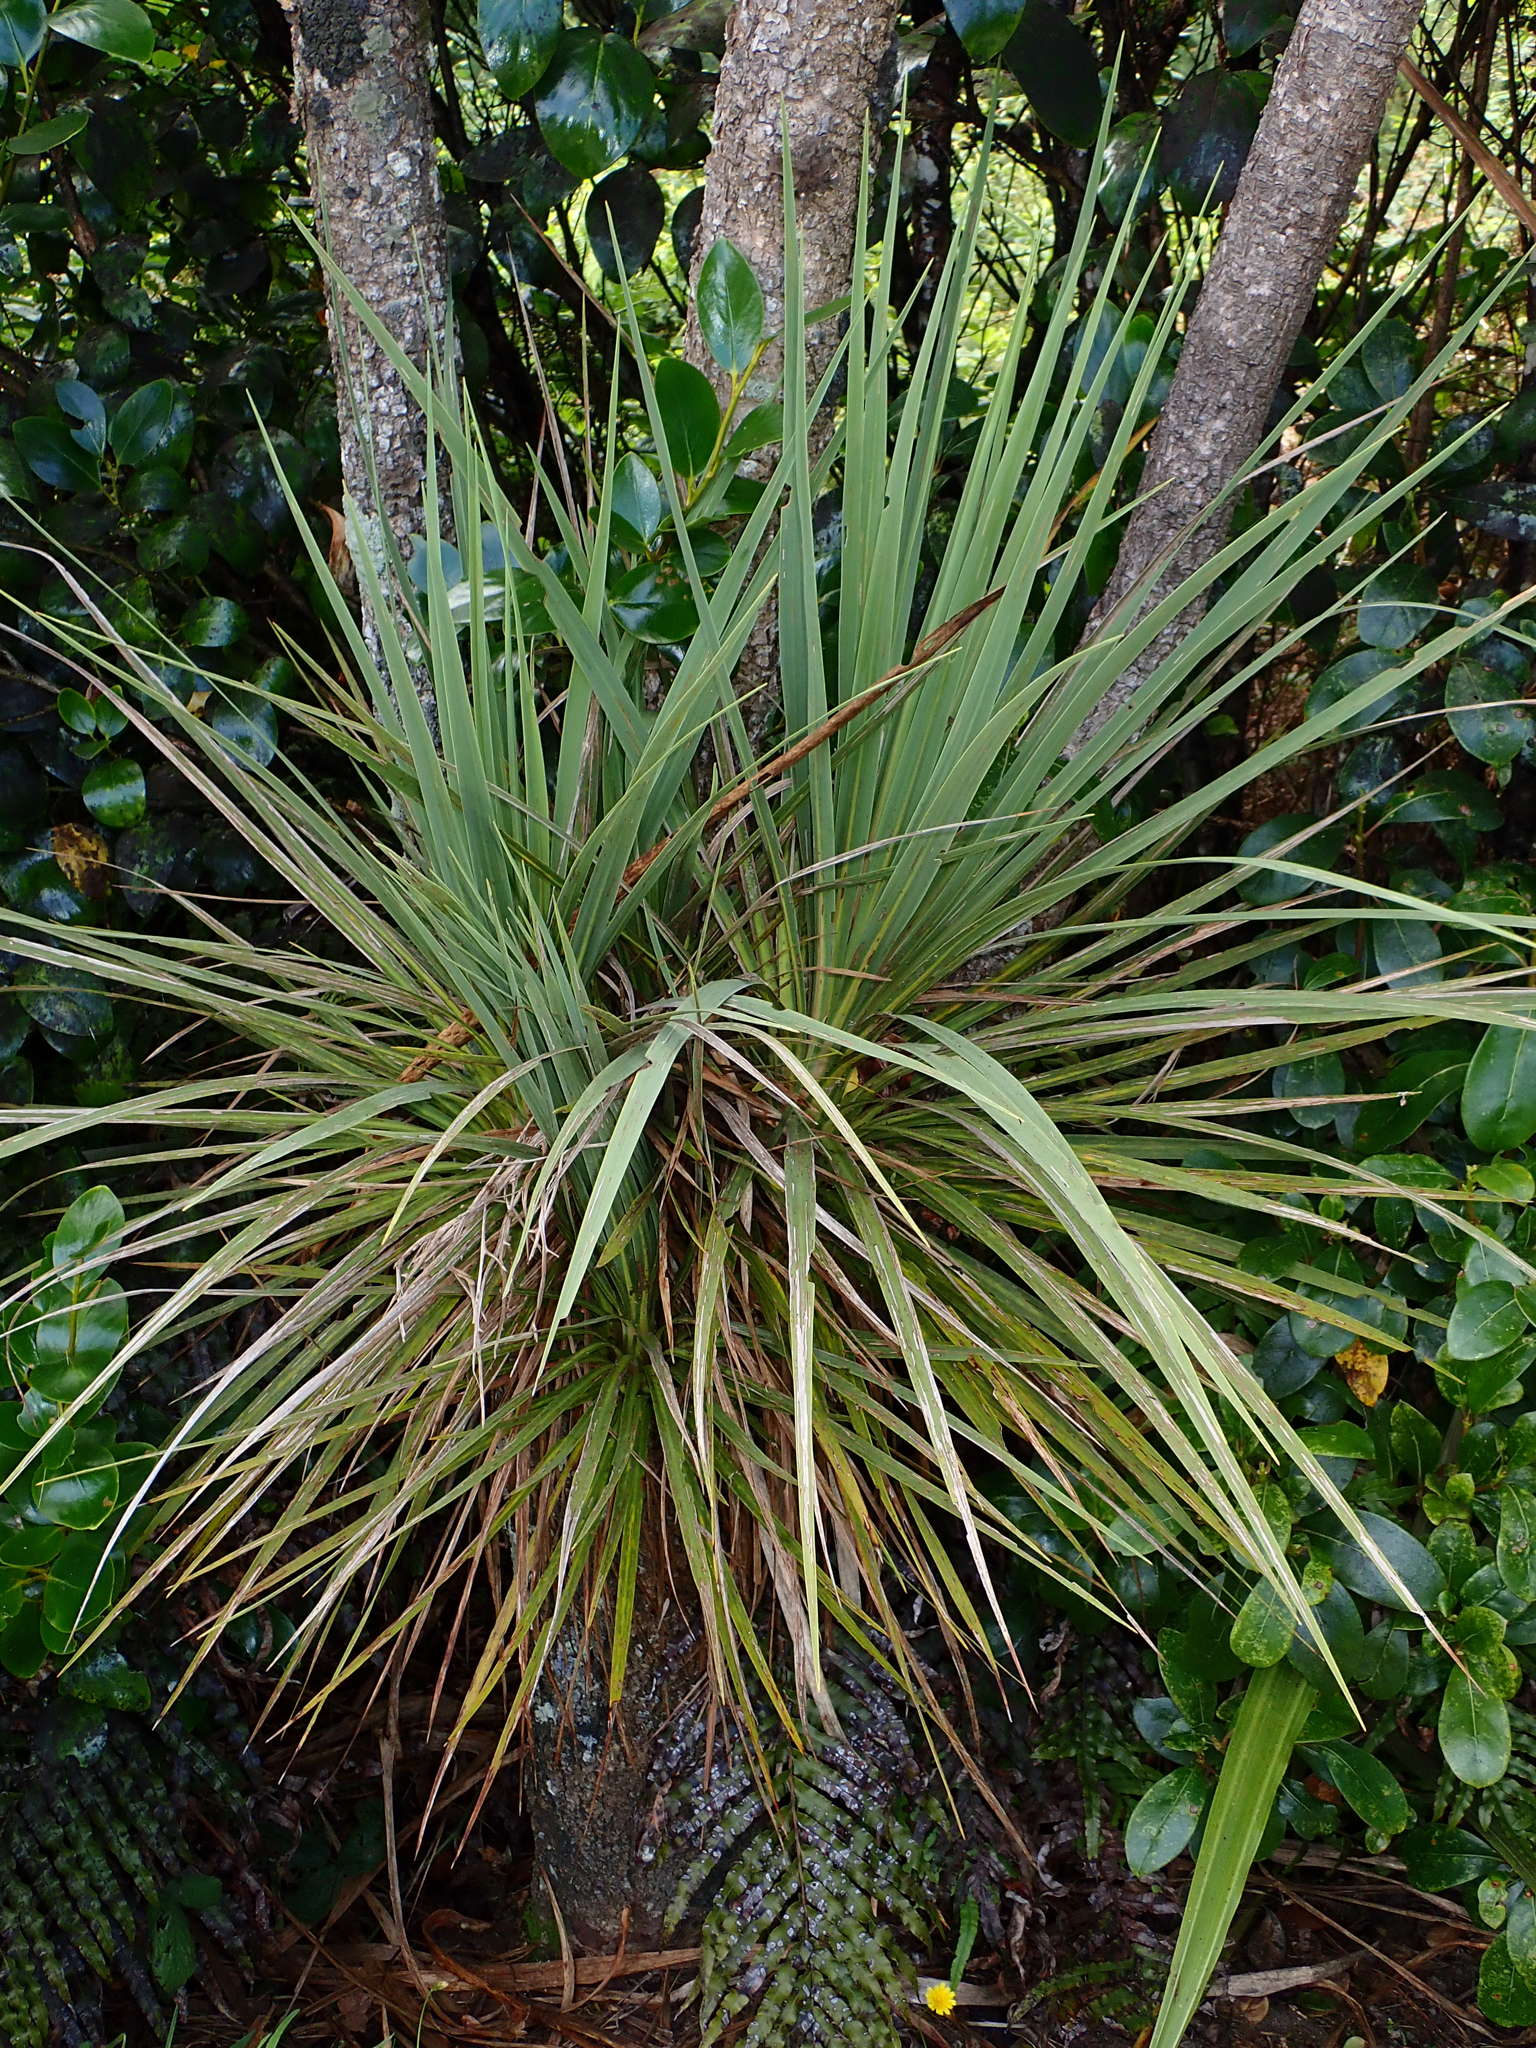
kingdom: Plantae
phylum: Tracheophyta
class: Liliopsida
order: Asparagales
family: Asparagaceae
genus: Cordyline
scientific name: Cordyline australis
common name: Cabbage-palm
